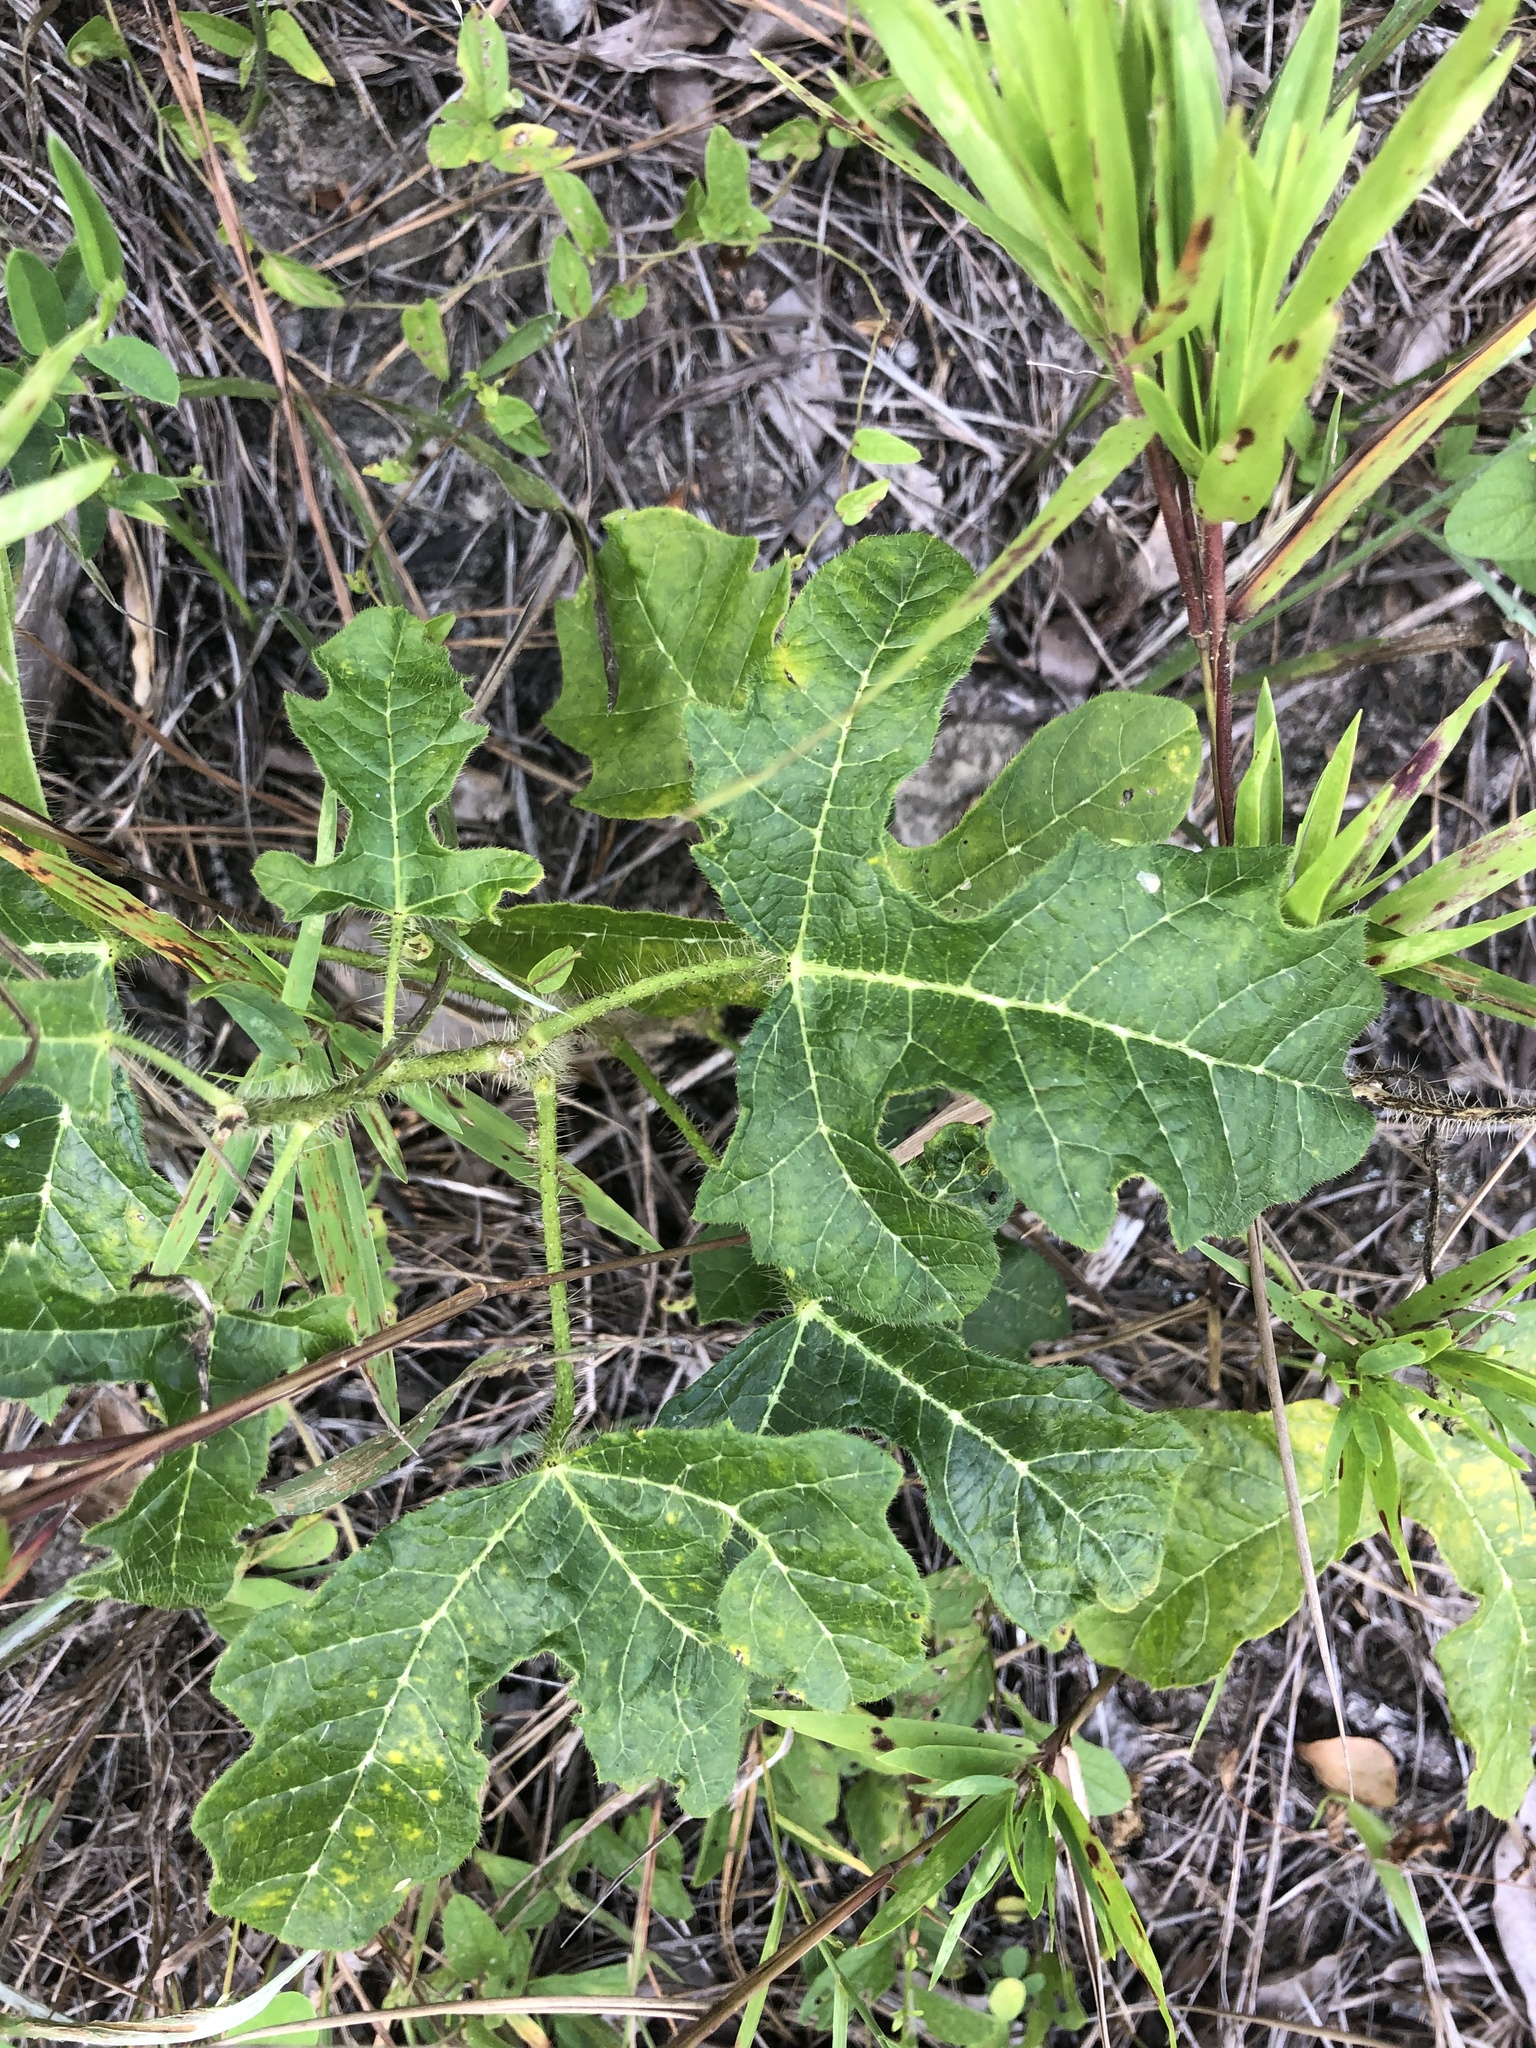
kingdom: Plantae
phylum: Tracheophyta
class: Magnoliopsida
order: Malpighiales
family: Euphorbiaceae
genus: Cnidoscolus
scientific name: Cnidoscolus stimulosus
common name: Bull-nettle
